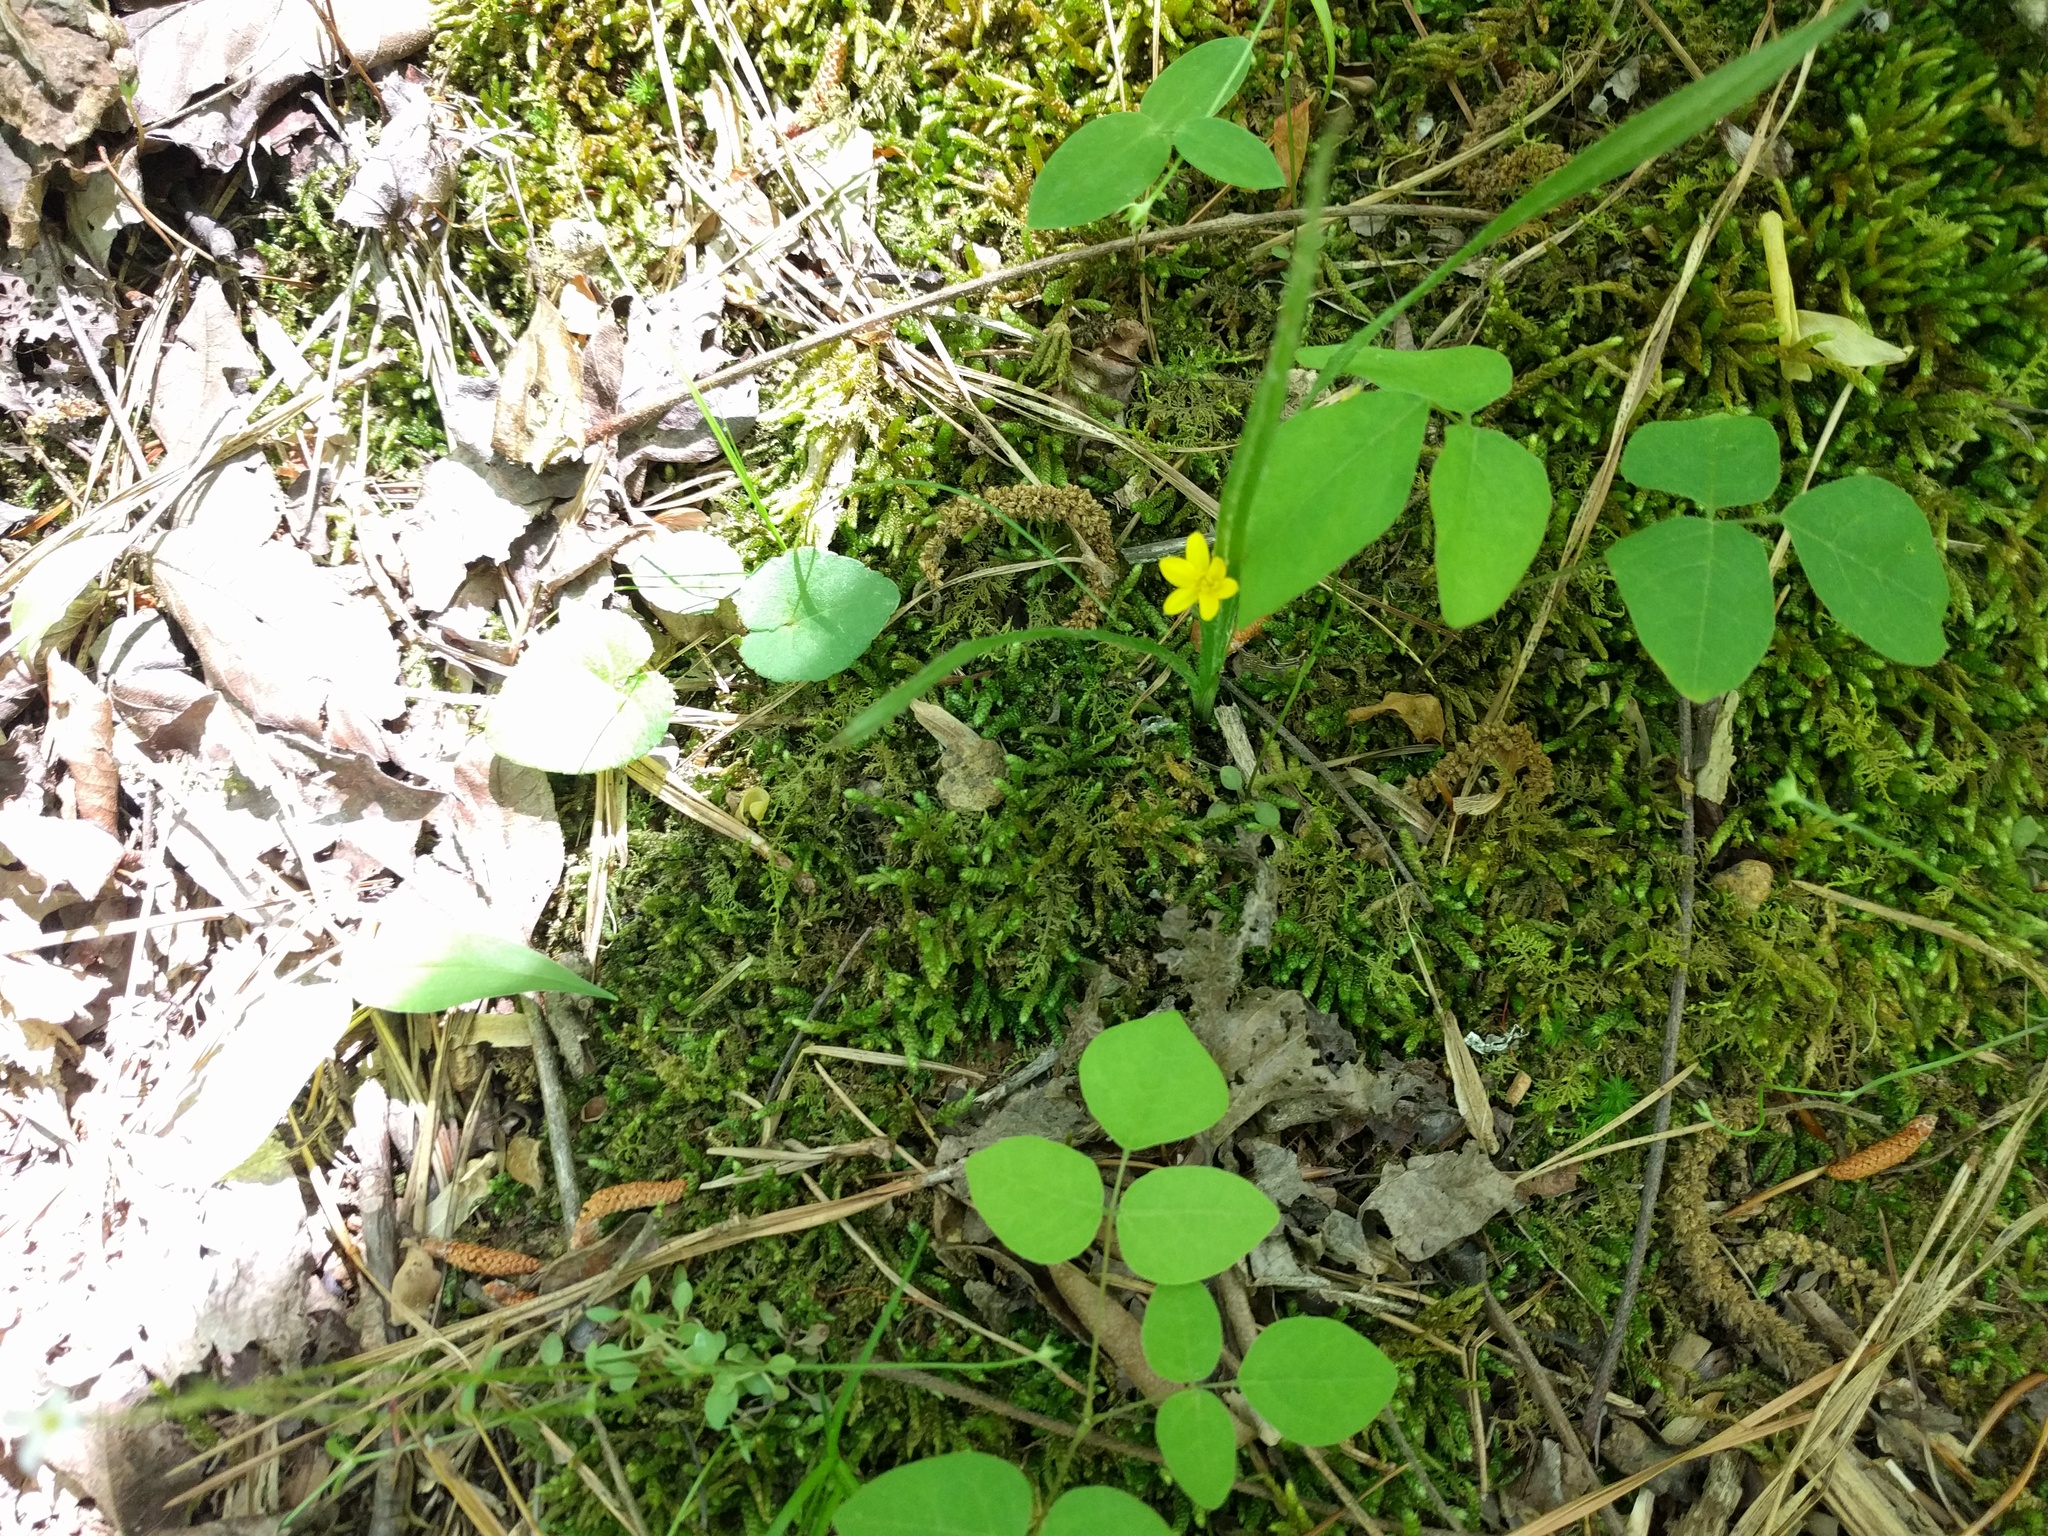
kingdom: Plantae
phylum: Tracheophyta
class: Liliopsida
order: Asparagales
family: Hypoxidaceae
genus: Hypoxis
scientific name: Hypoxis hirsuta
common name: Common goldstar
